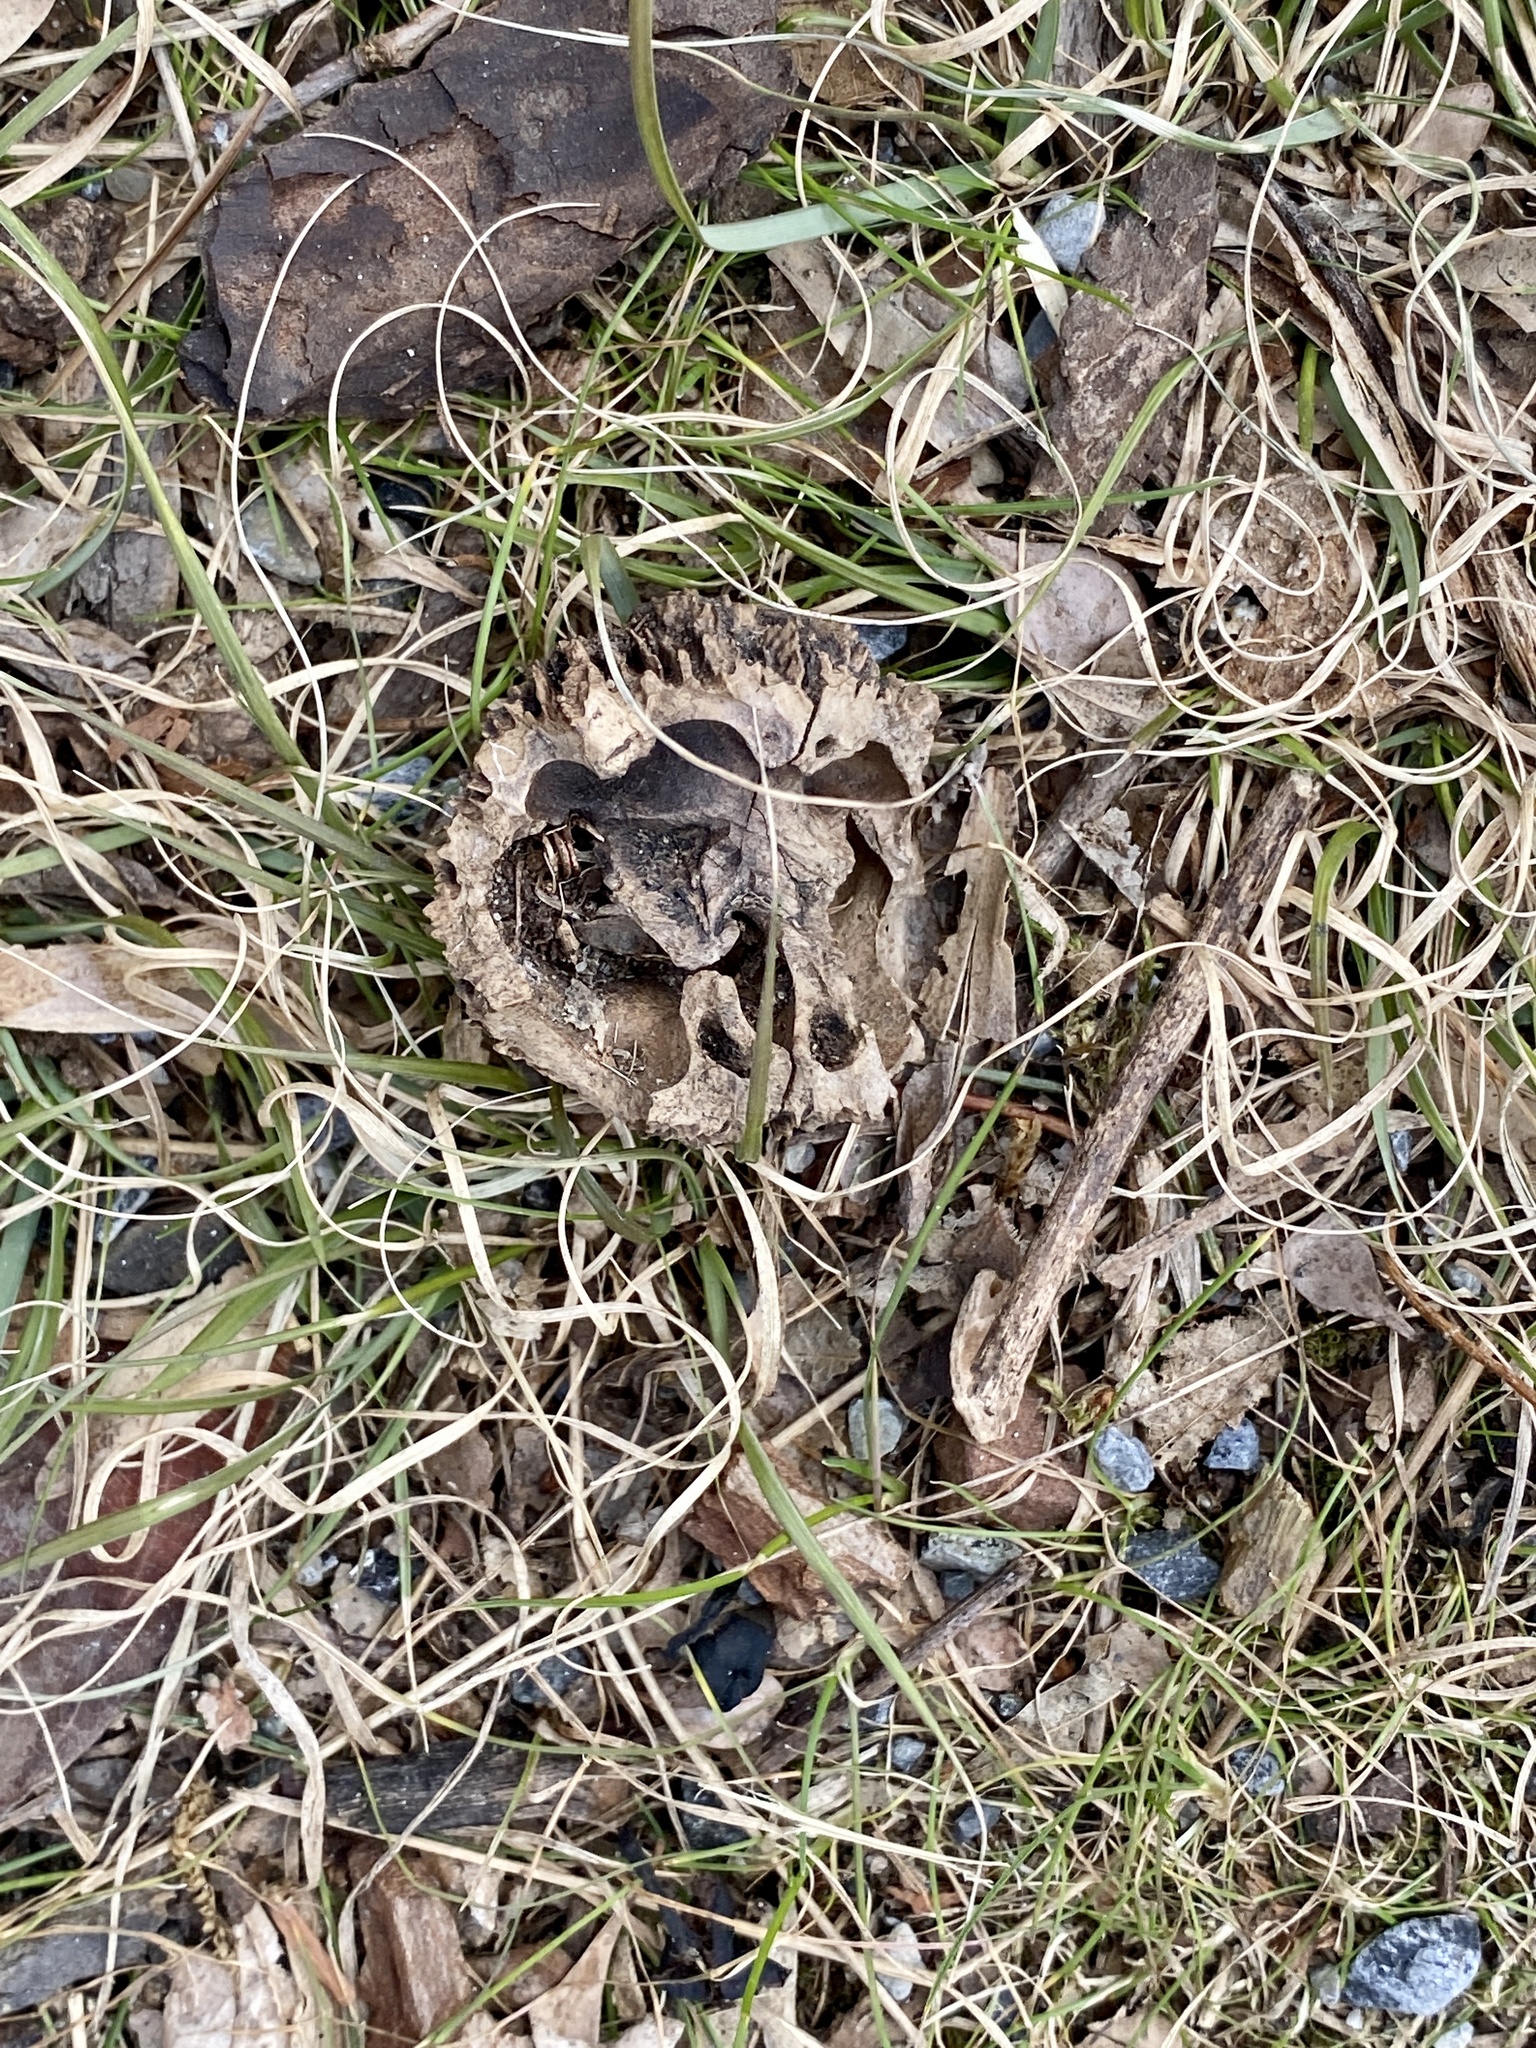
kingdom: Plantae
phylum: Tracheophyta
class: Magnoliopsida
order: Fagales
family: Juglandaceae
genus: Juglans
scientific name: Juglans nigra
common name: Black walnut
